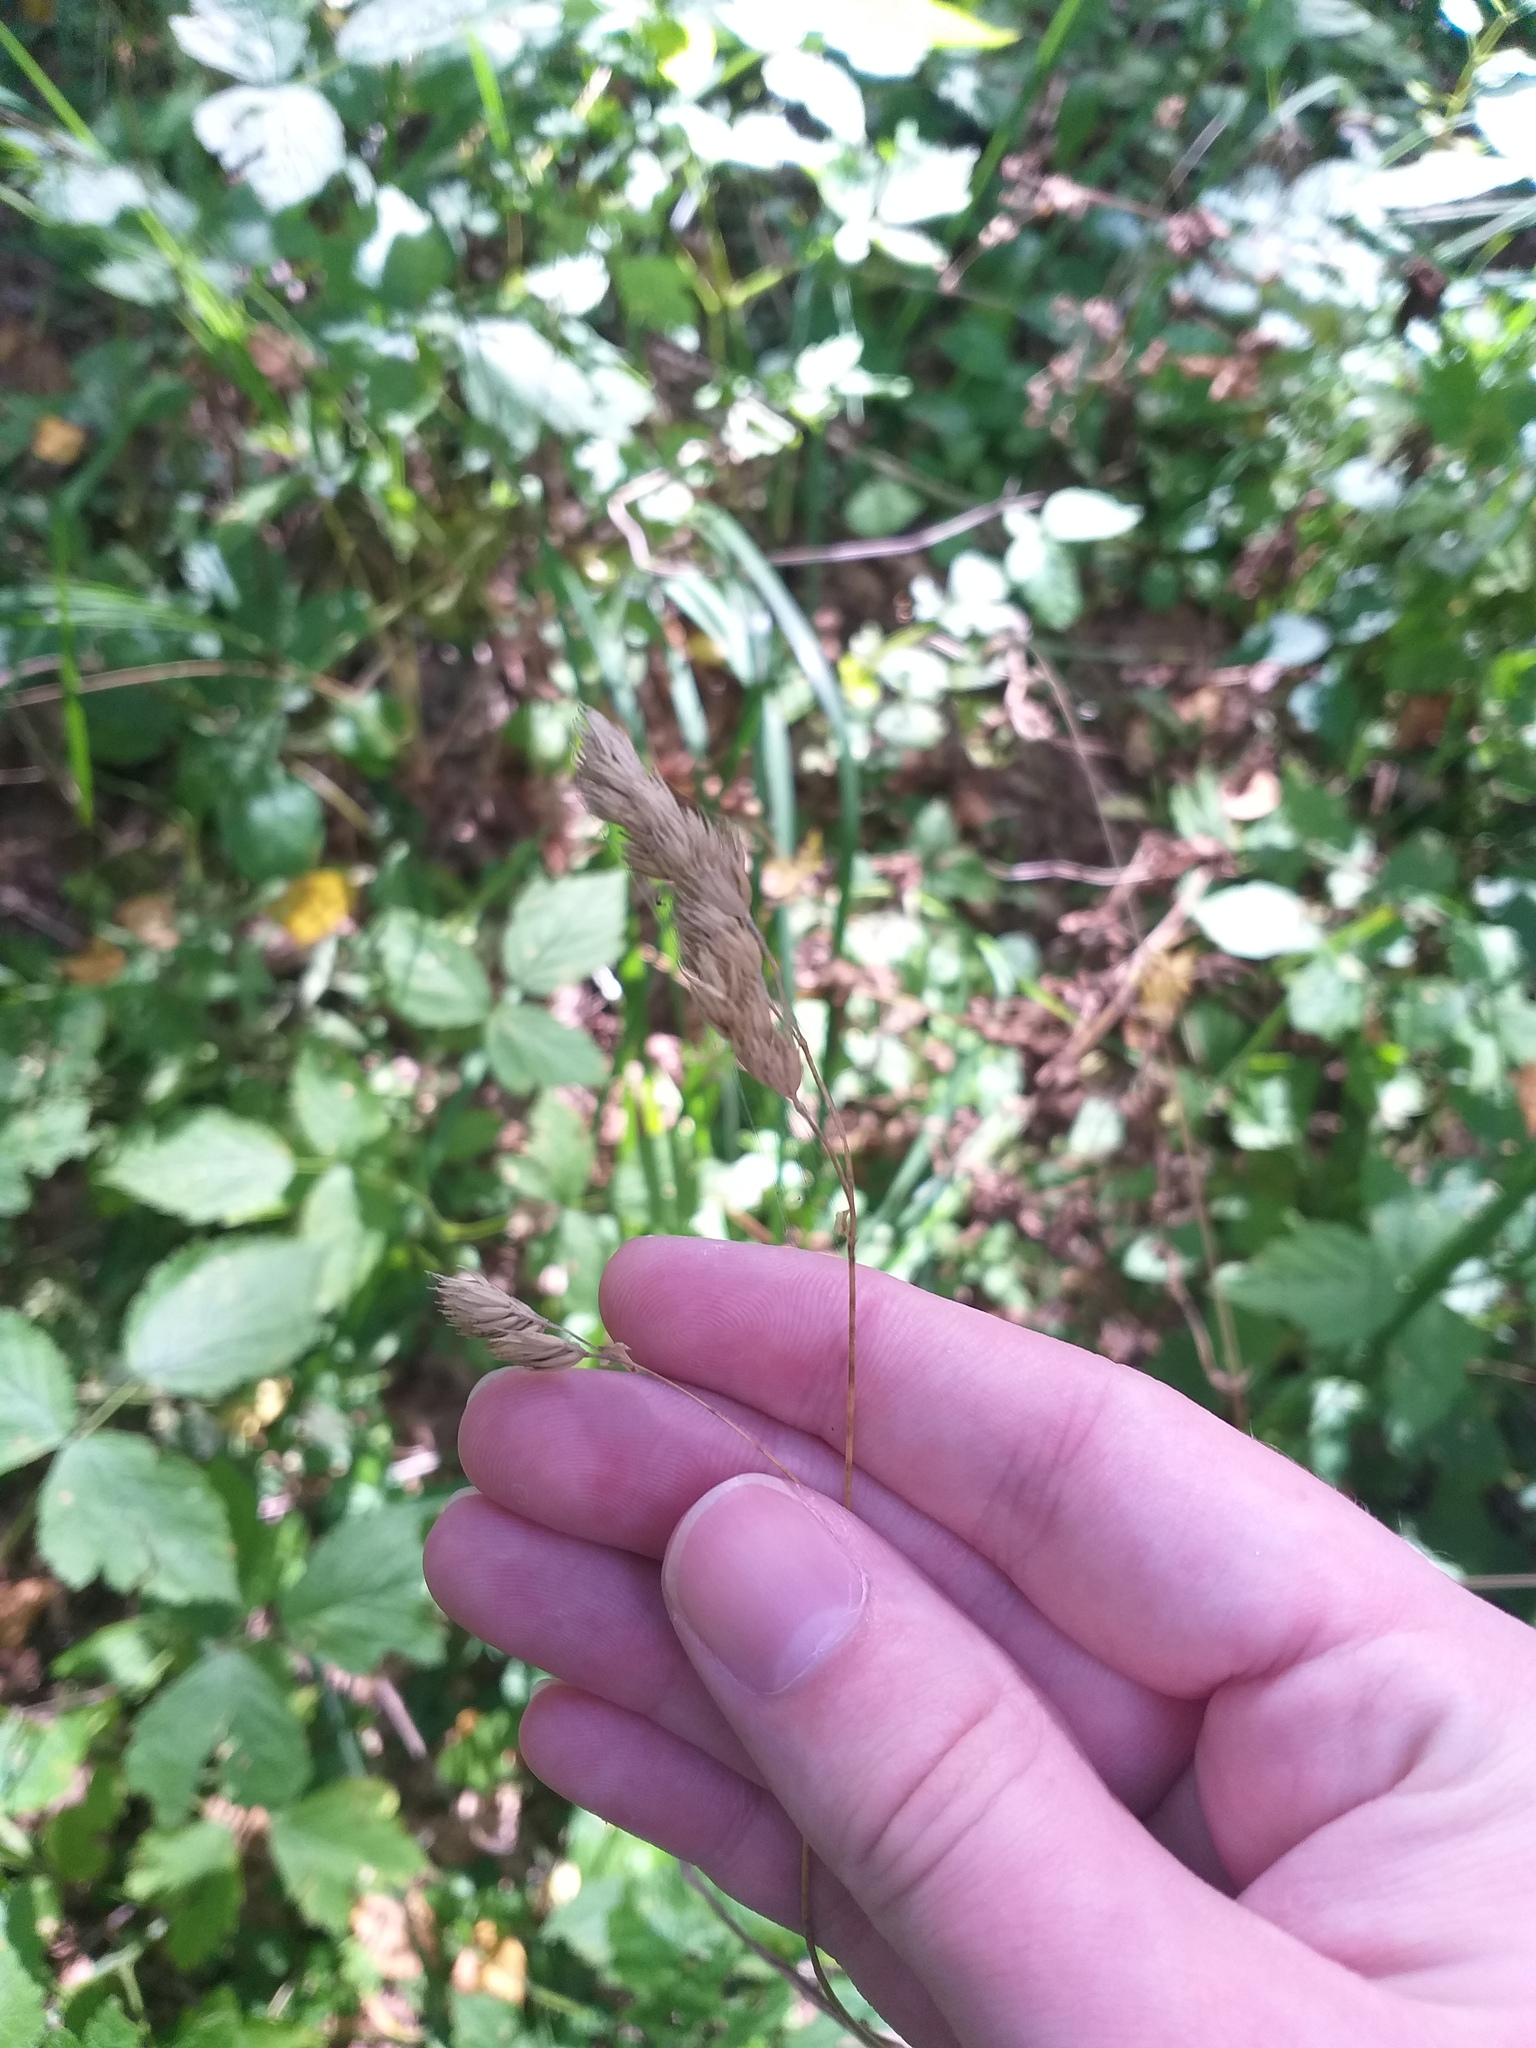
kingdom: Plantae
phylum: Tracheophyta
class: Liliopsida
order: Poales
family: Poaceae
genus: Dactylis
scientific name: Dactylis glomerata
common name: Orchardgrass
